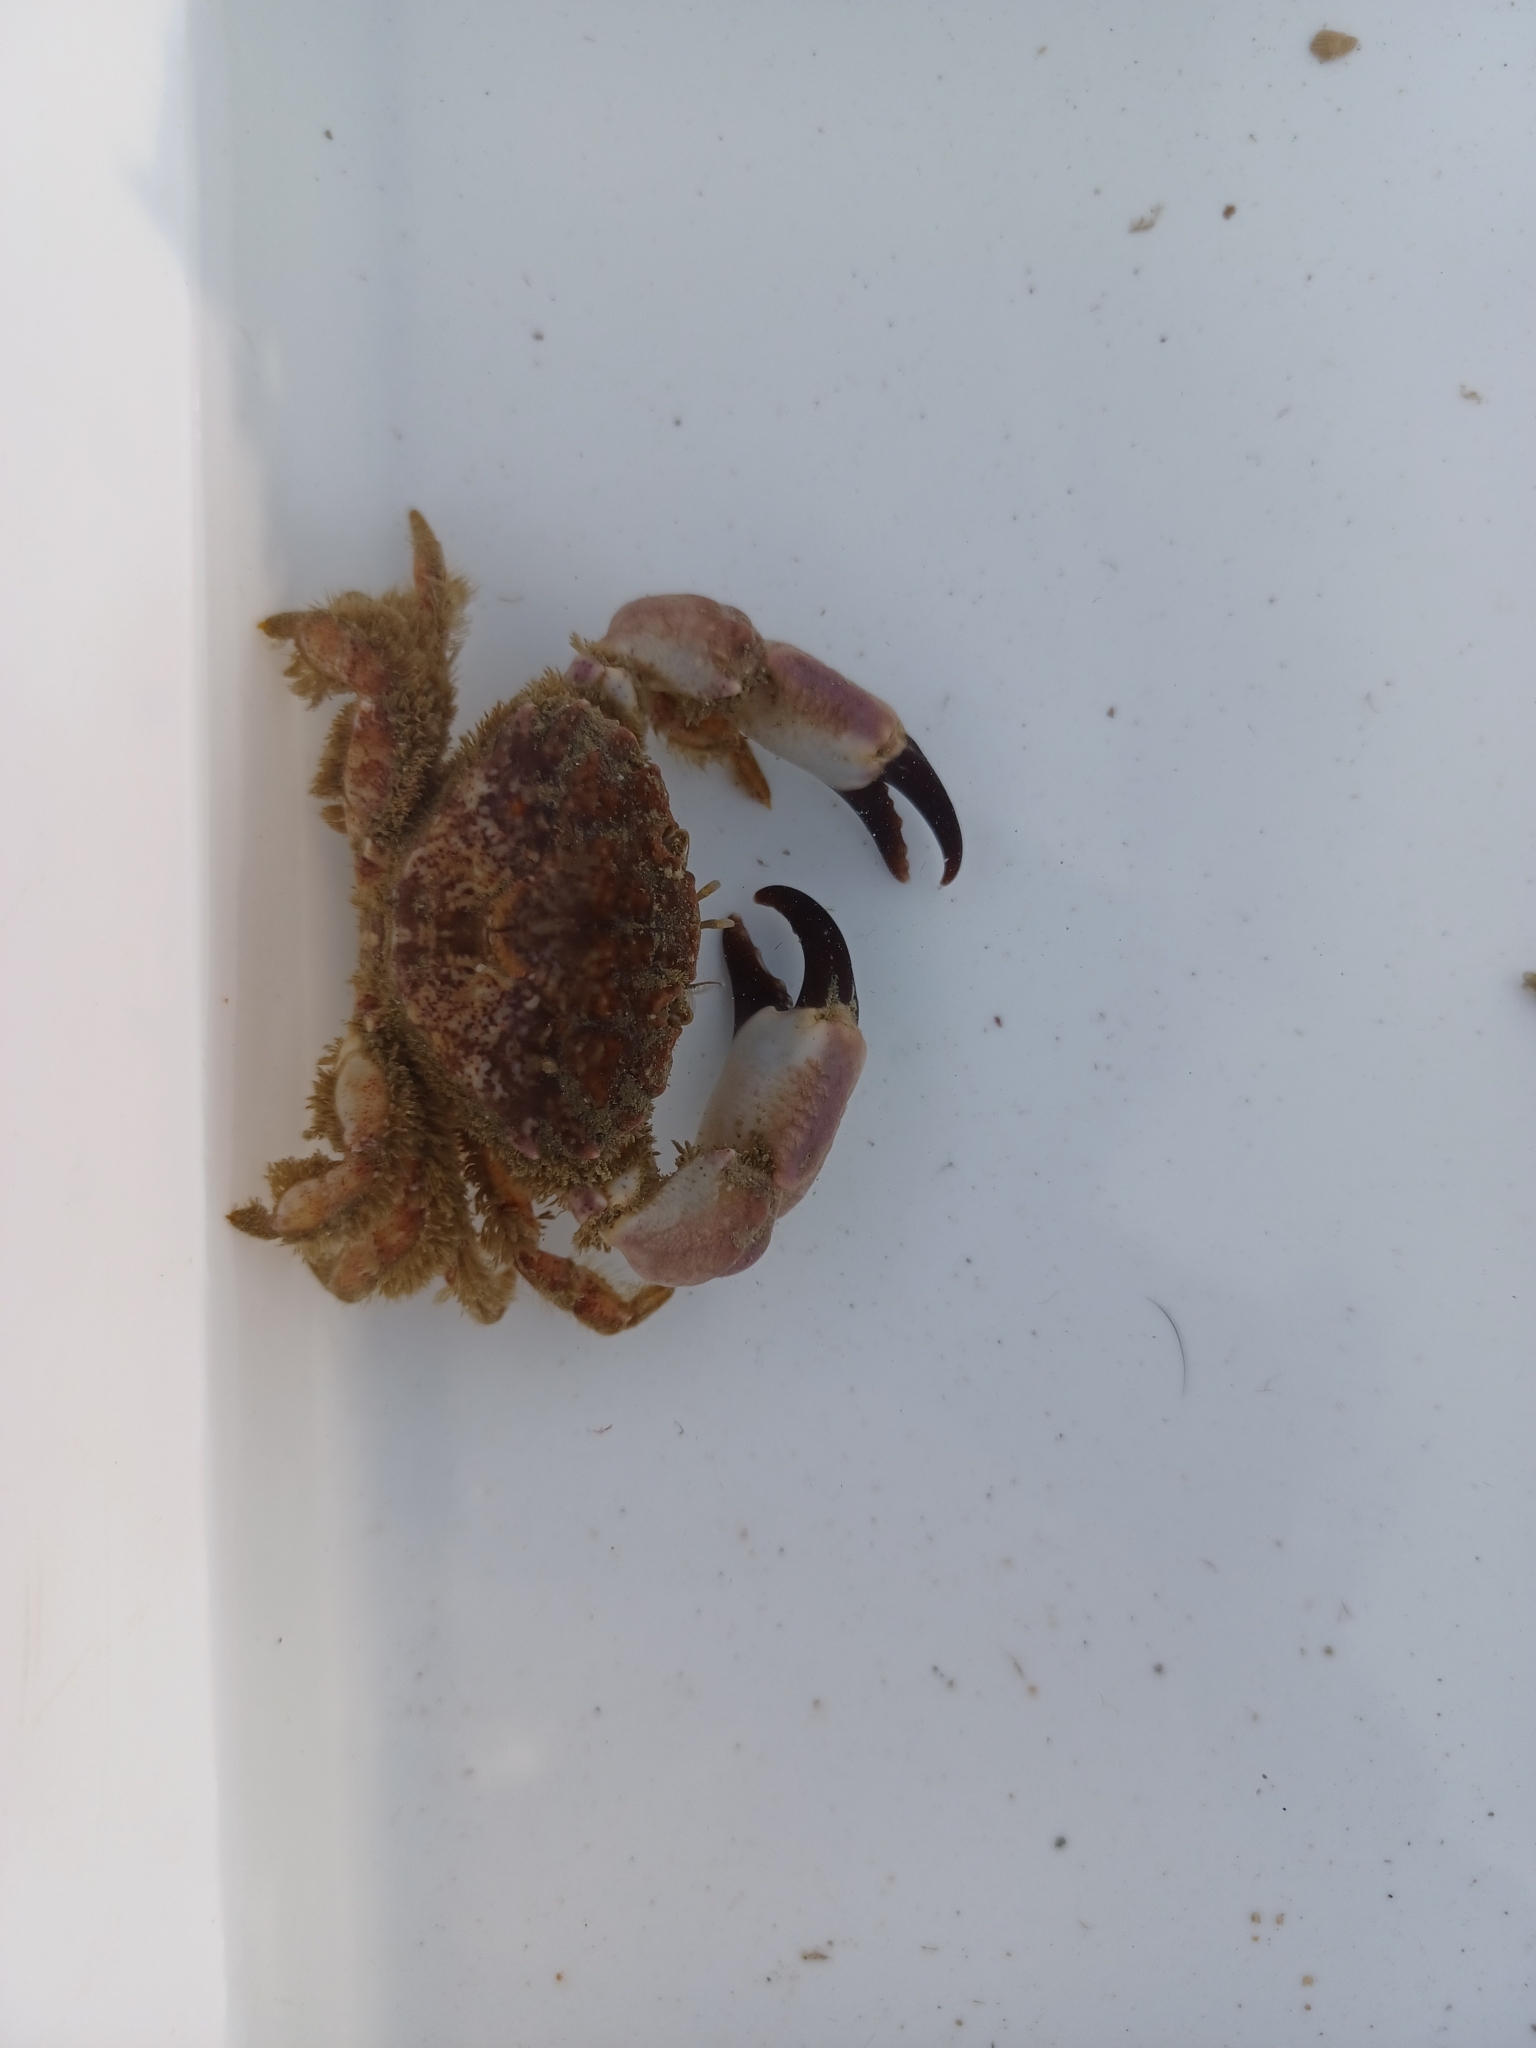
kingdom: Animalia
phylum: Arthropoda
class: Malacostraca
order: Decapoda
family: Xanthidae
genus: Xantho
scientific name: Xantho pilipes
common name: Risso's crab
